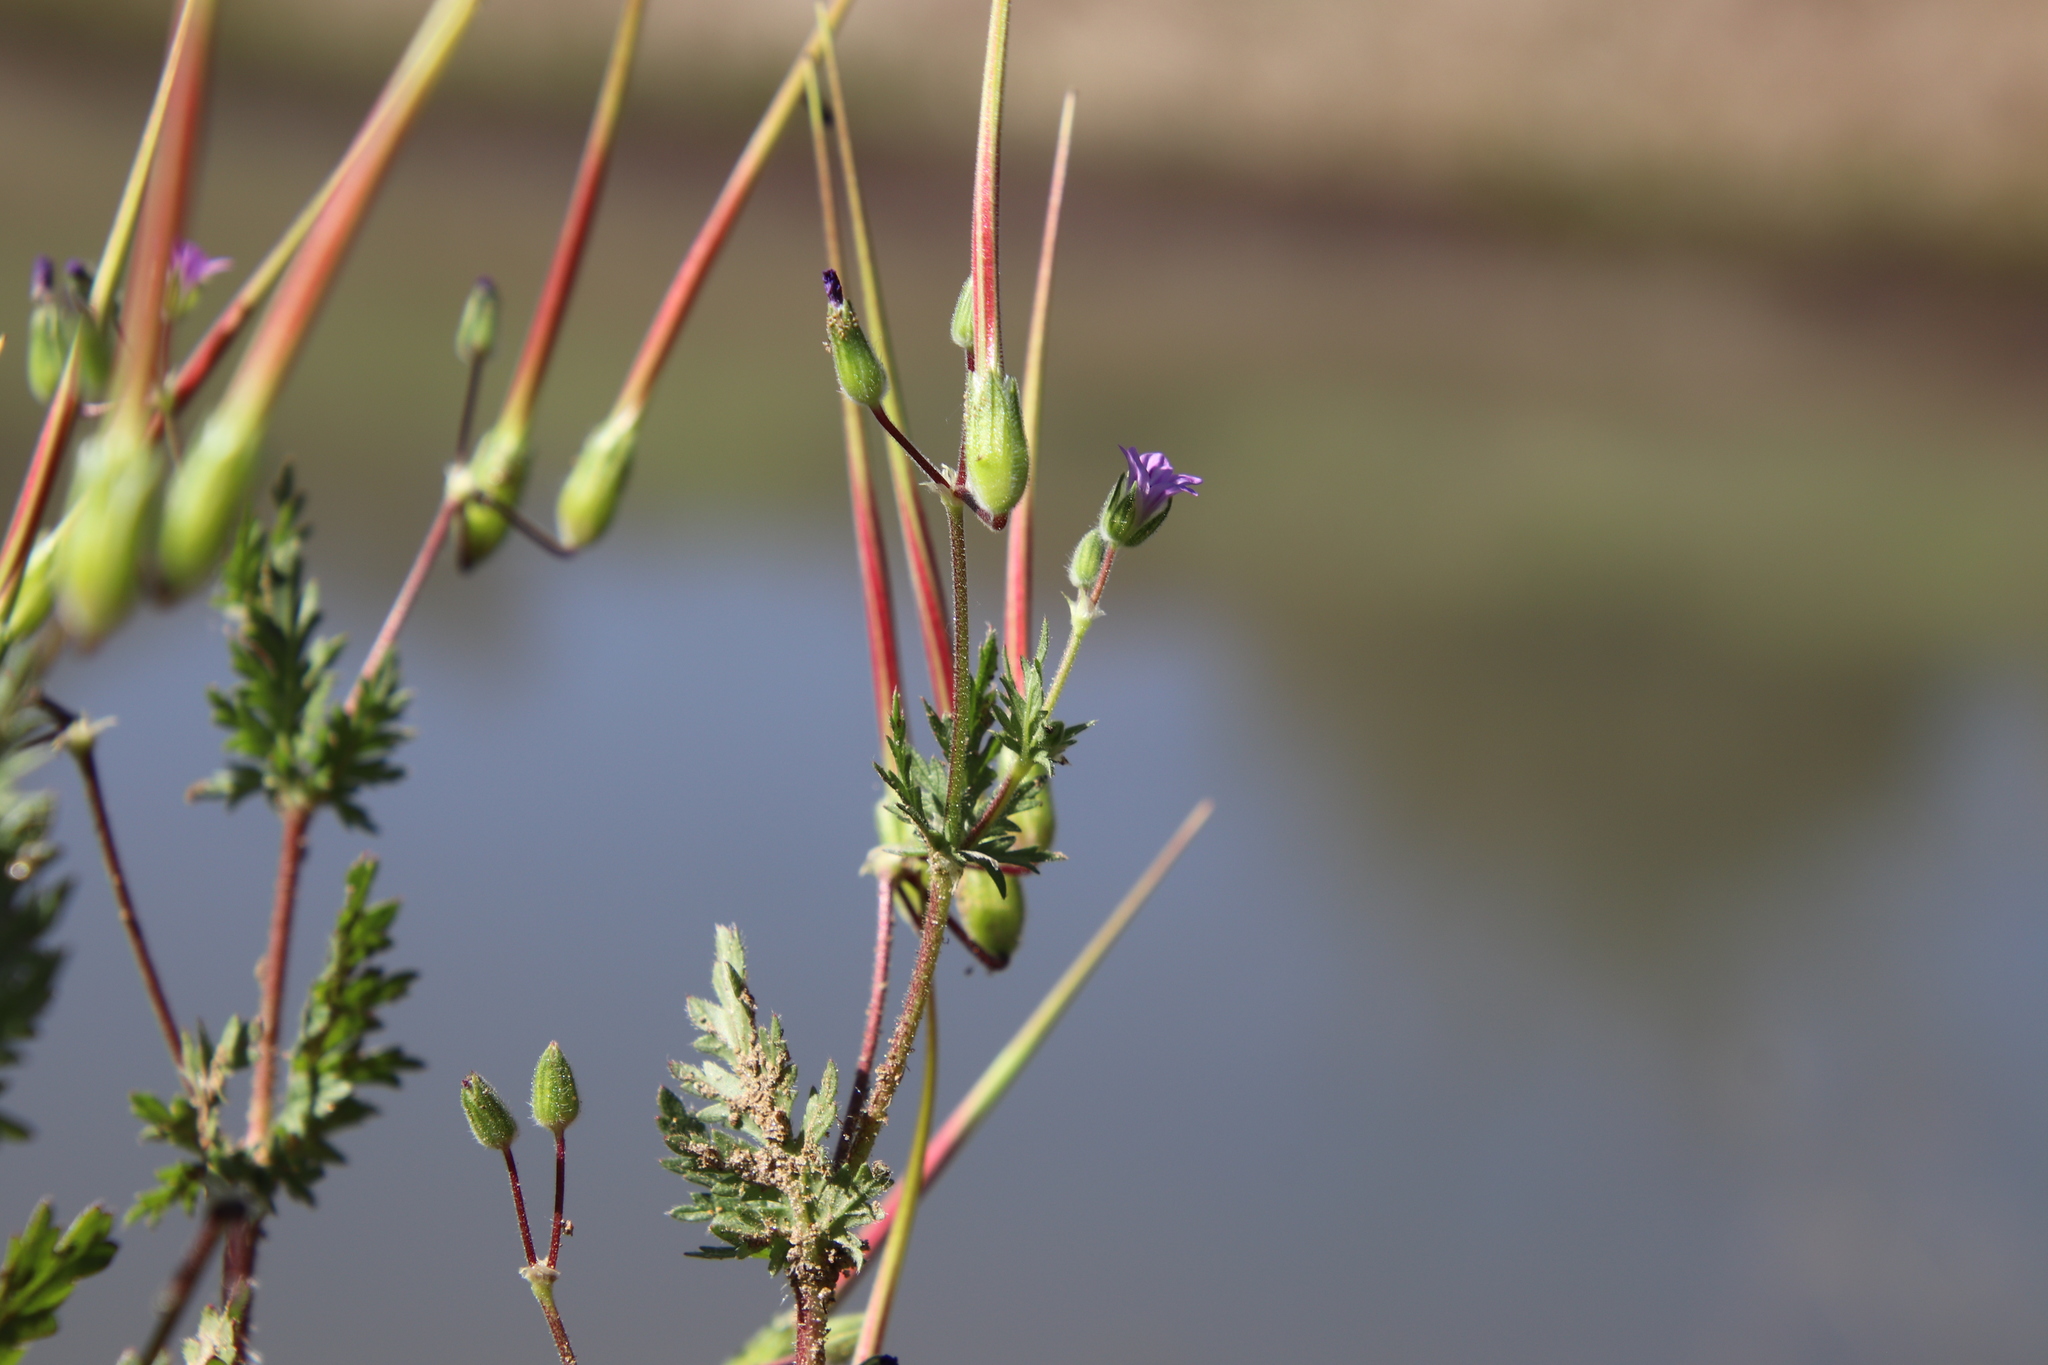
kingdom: Plantae
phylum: Tracheophyta
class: Magnoliopsida
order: Geraniales
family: Geraniaceae
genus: Erodium
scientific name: Erodium brachycarpum
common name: Hairy-pitted stork's-bill
